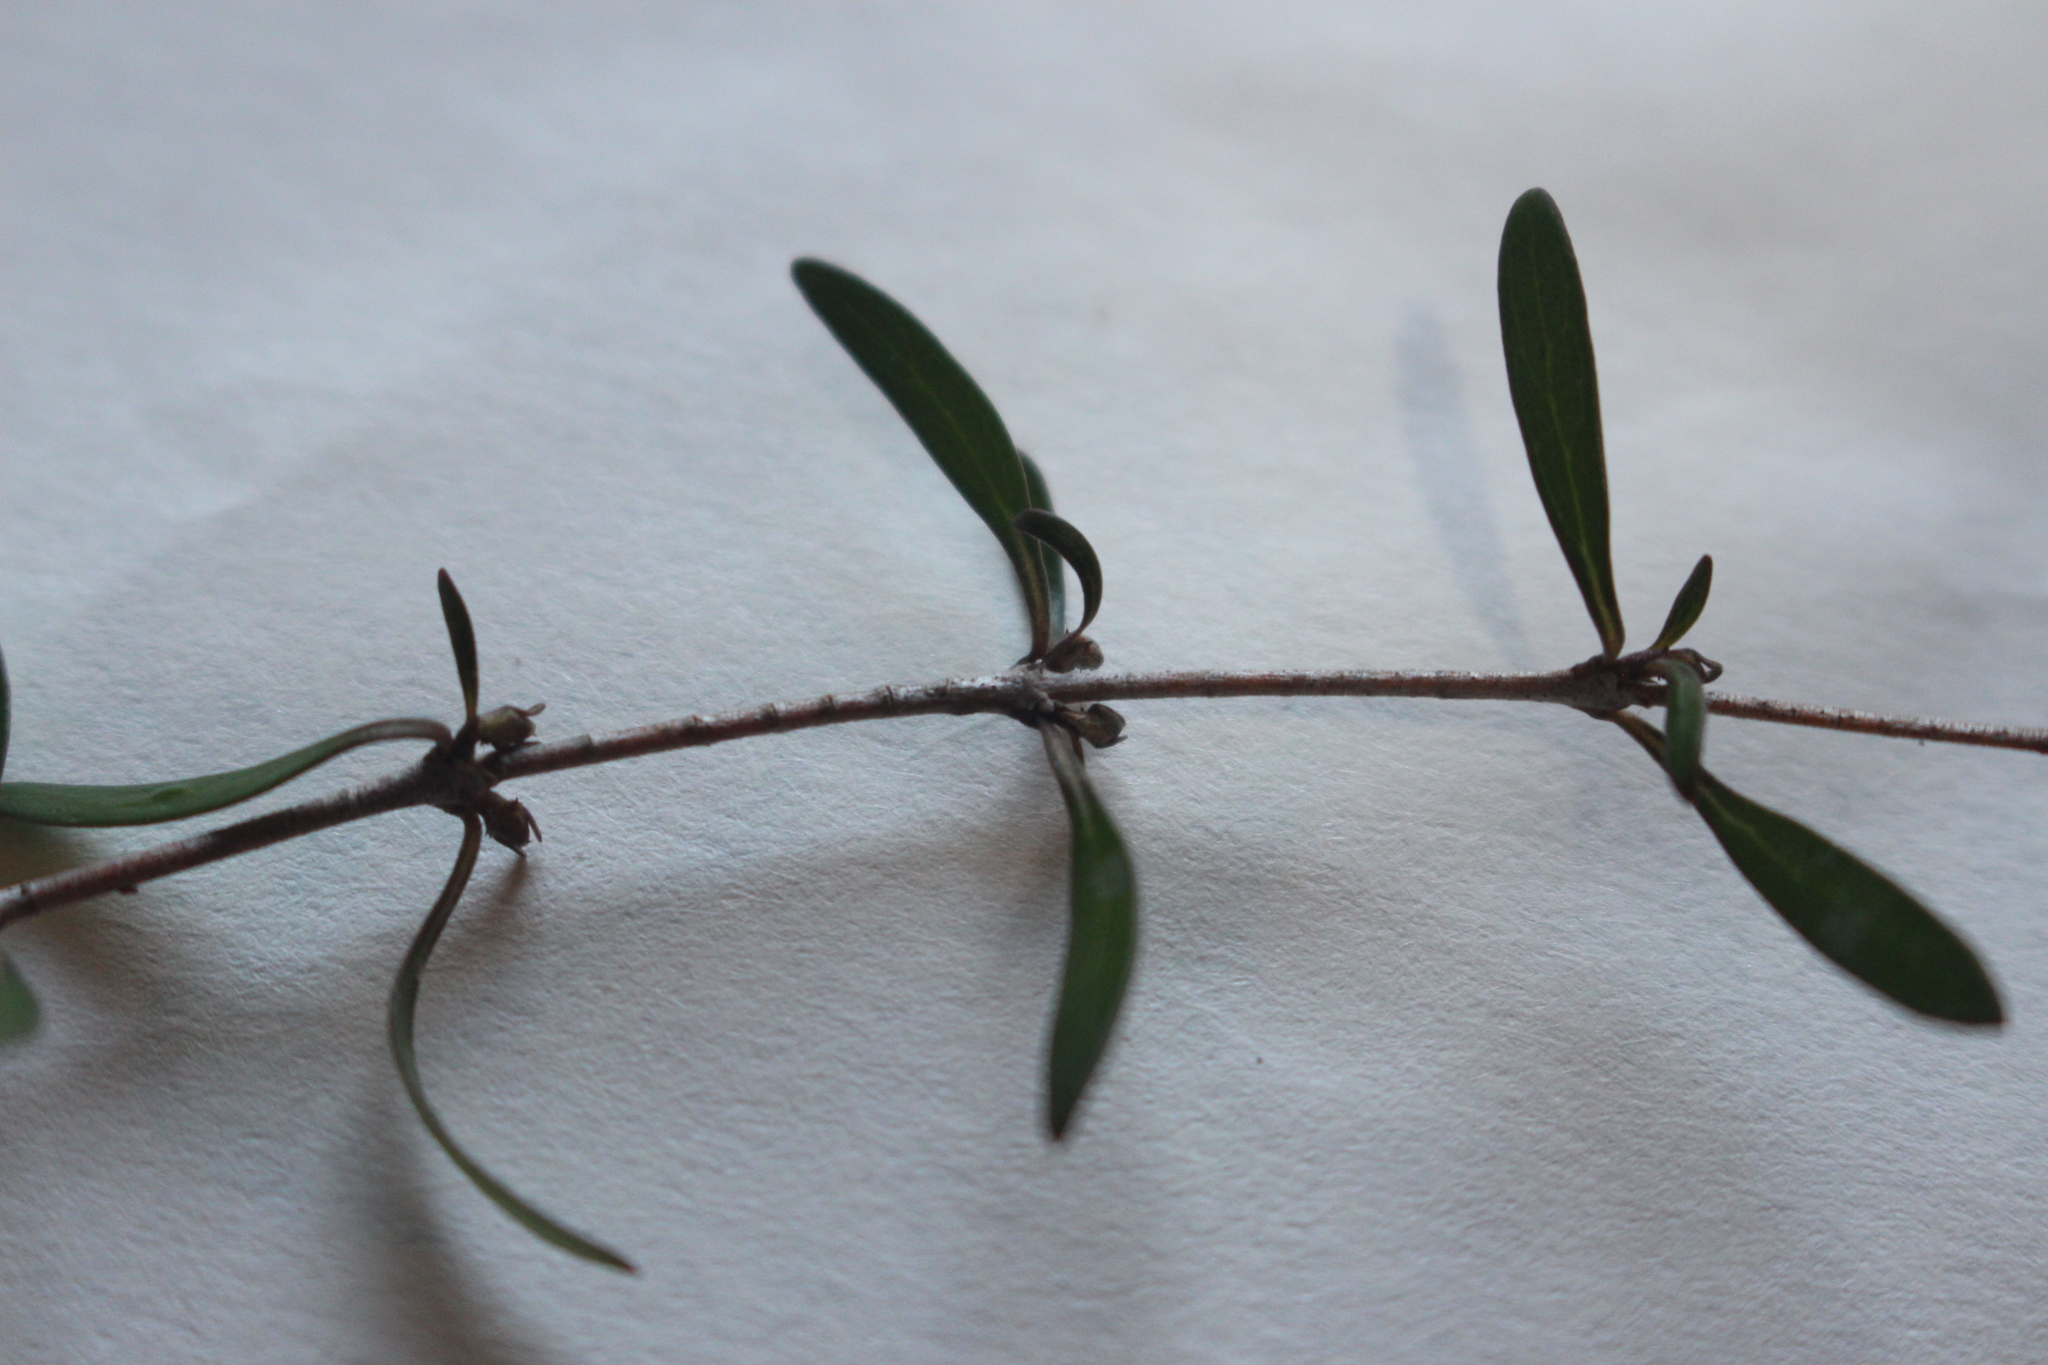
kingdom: Plantae
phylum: Tracheophyta
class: Magnoliopsida
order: Gentianales
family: Rubiaceae
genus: Coprosma
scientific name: Coprosma linariifolia
